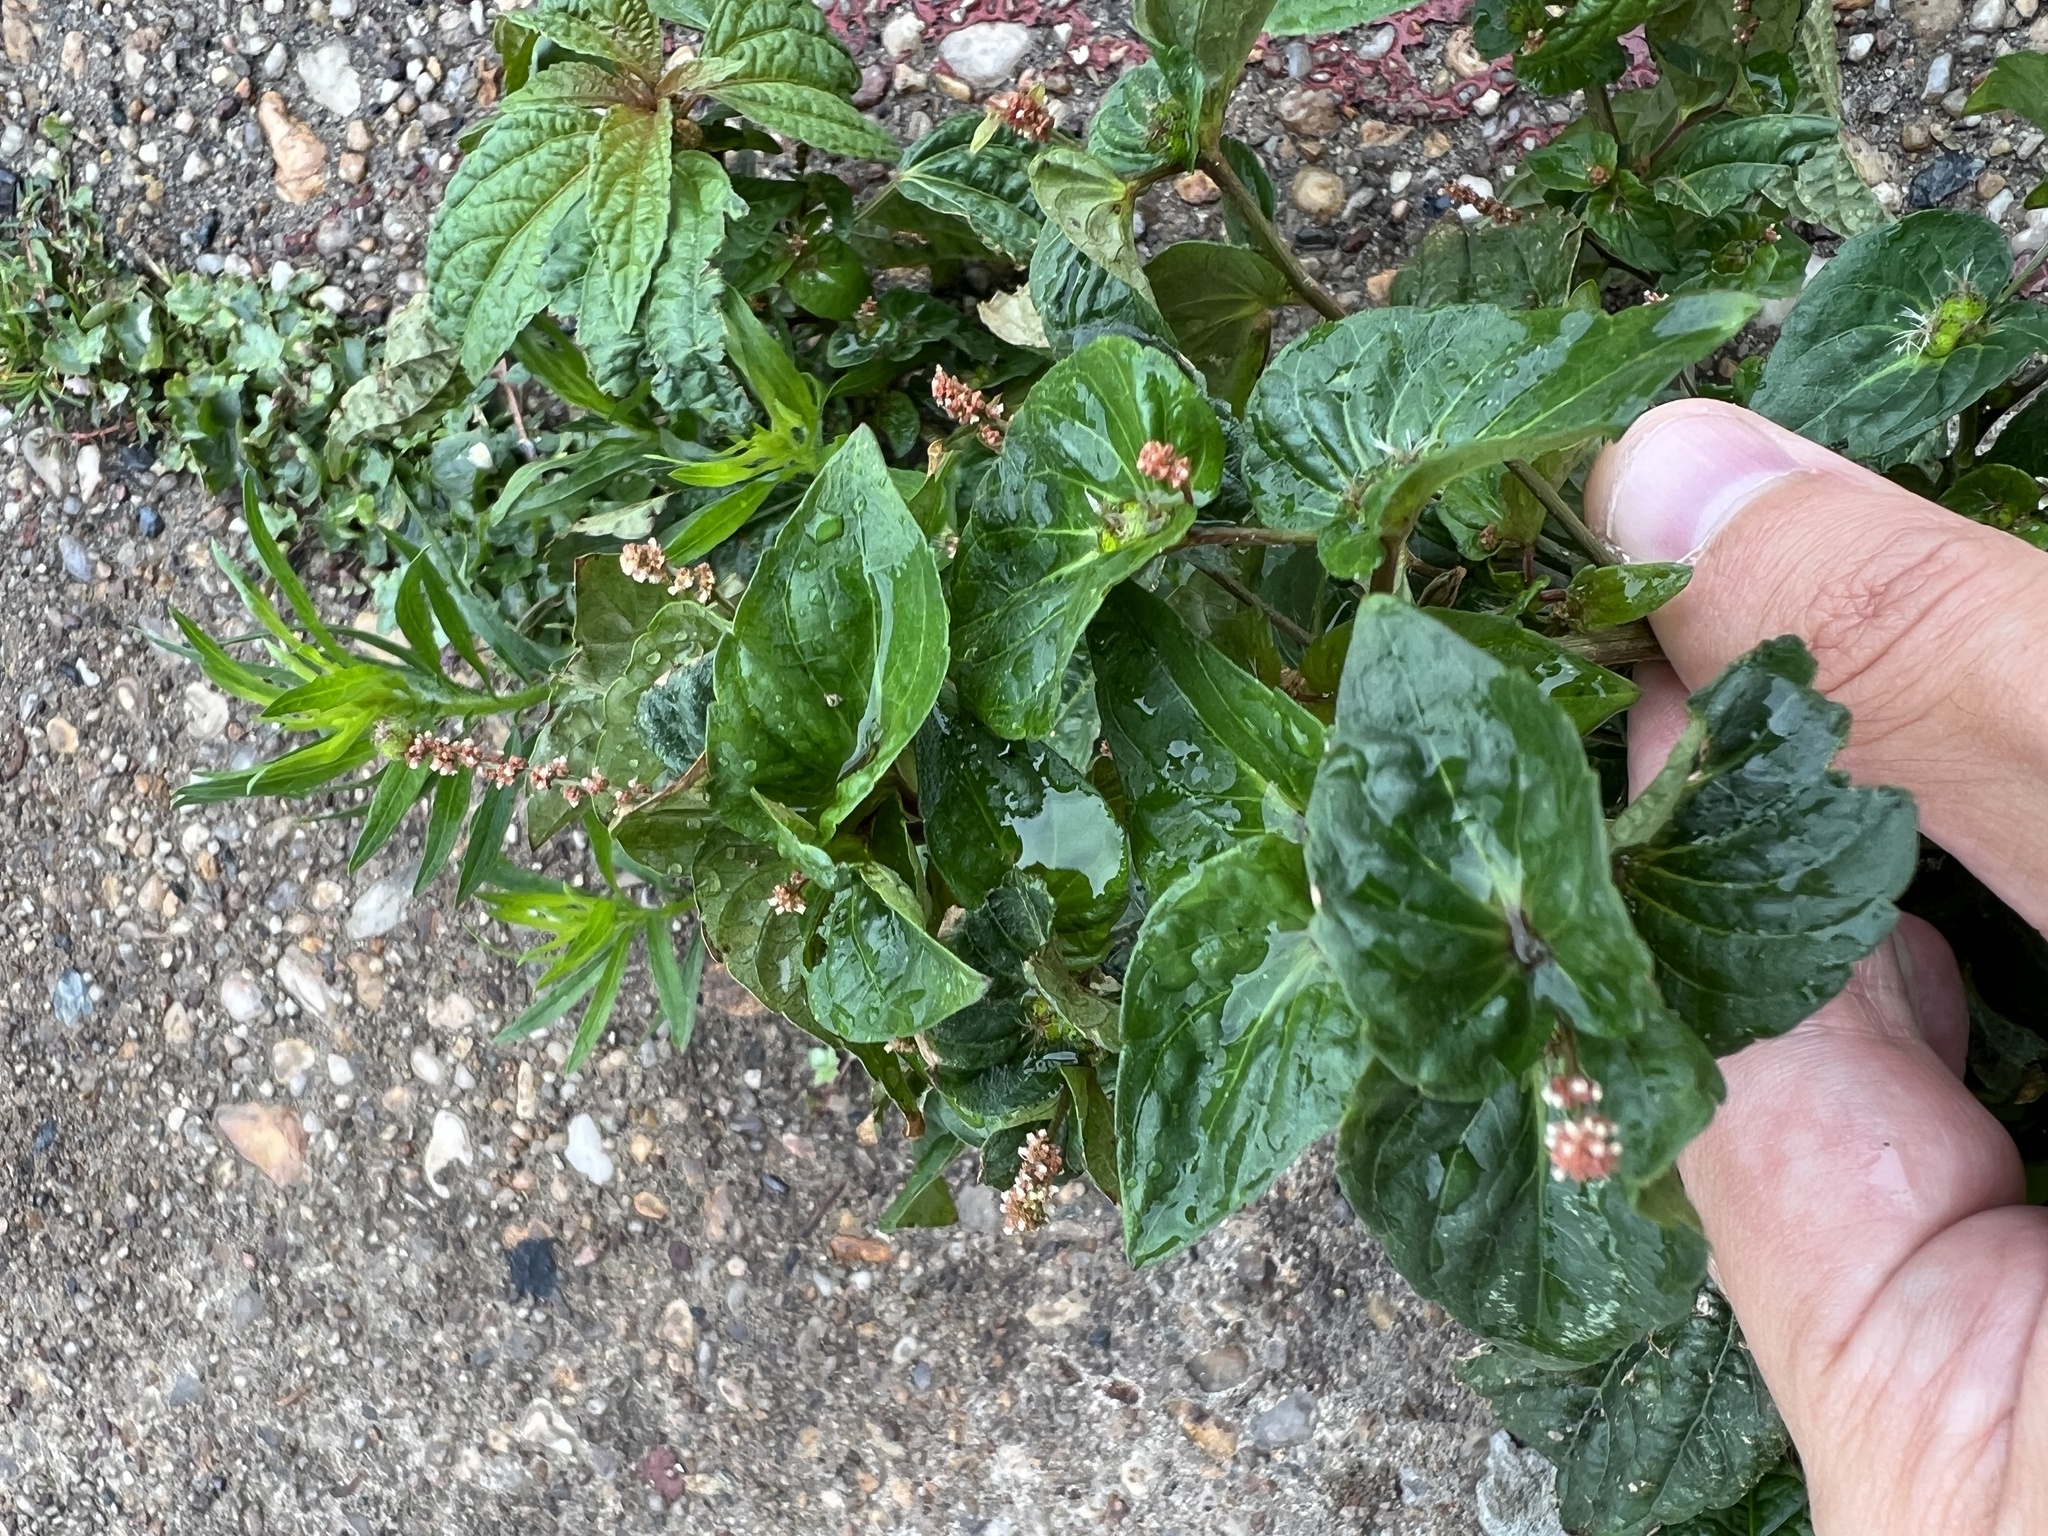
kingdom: Plantae
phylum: Tracheophyta
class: Magnoliopsida
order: Malpighiales
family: Euphorbiaceae
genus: Acalypha
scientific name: Acalypha australis
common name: Asian copperleaf
